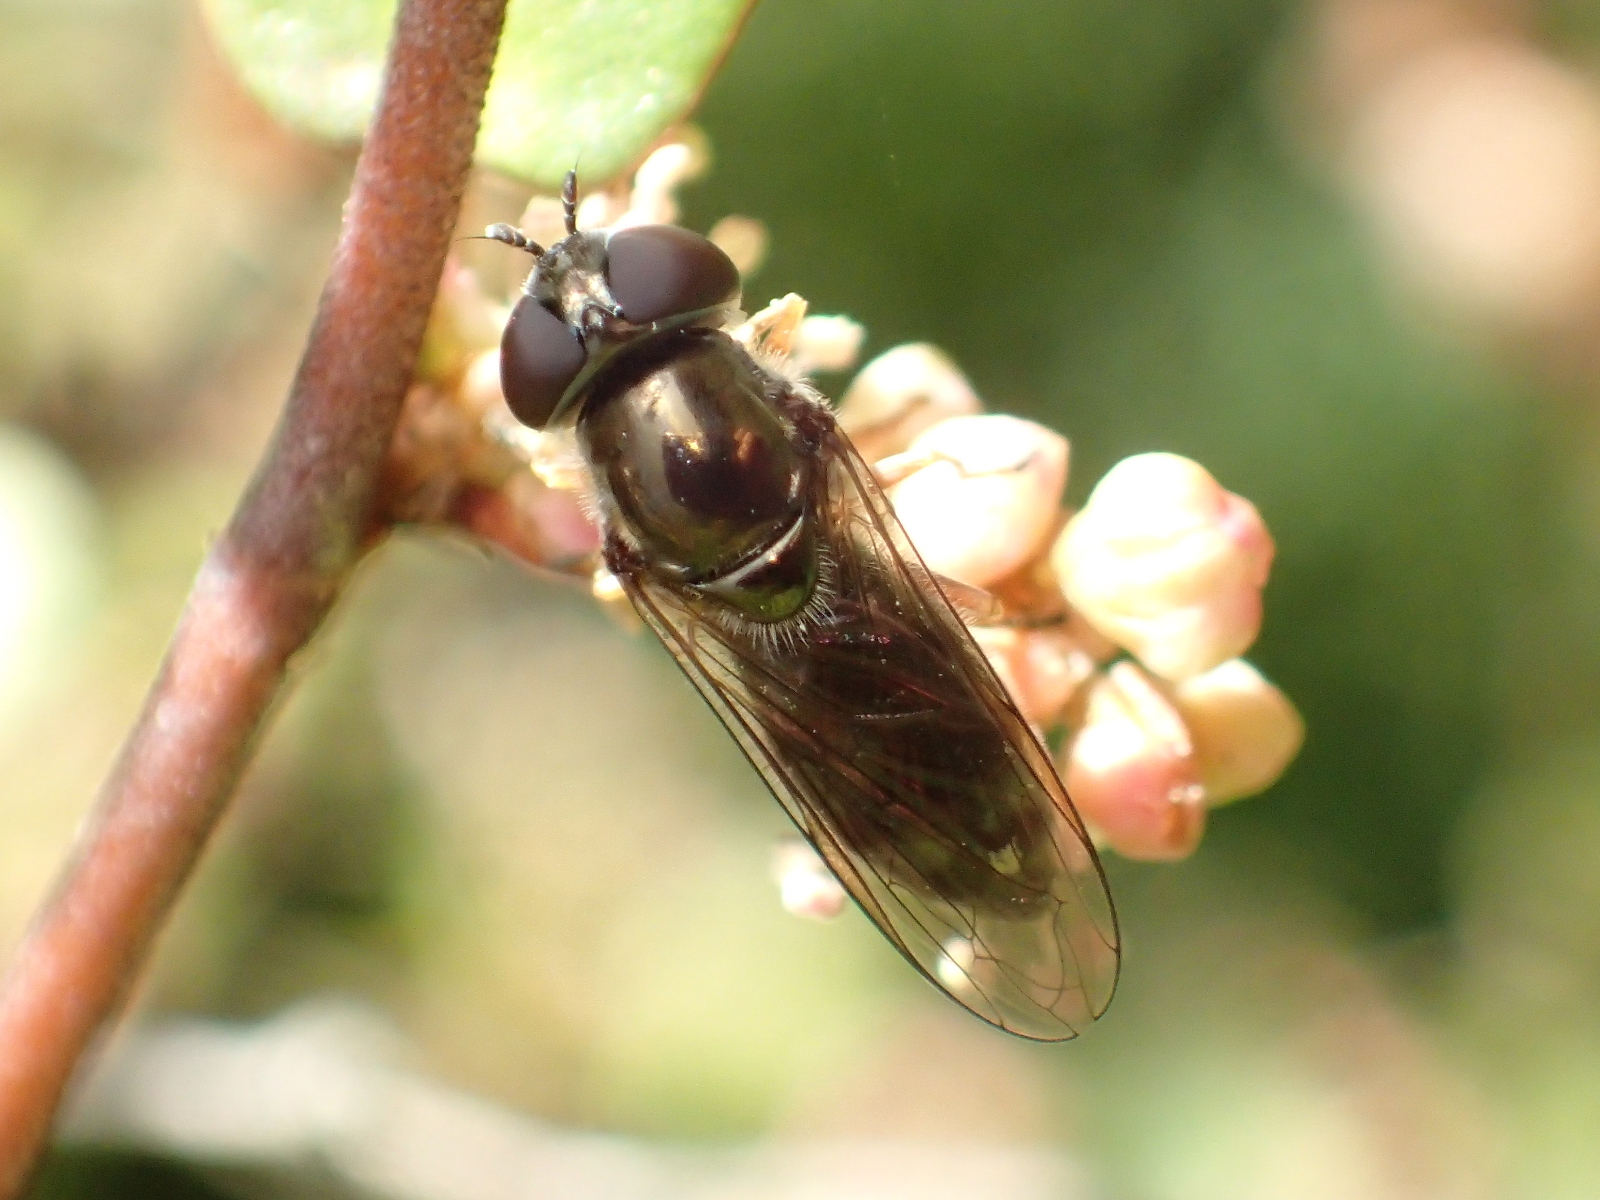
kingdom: Animalia
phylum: Arthropoda
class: Insecta
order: Diptera
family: Syrphidae
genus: Melanostoma
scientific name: Melanostoma fasciatum
